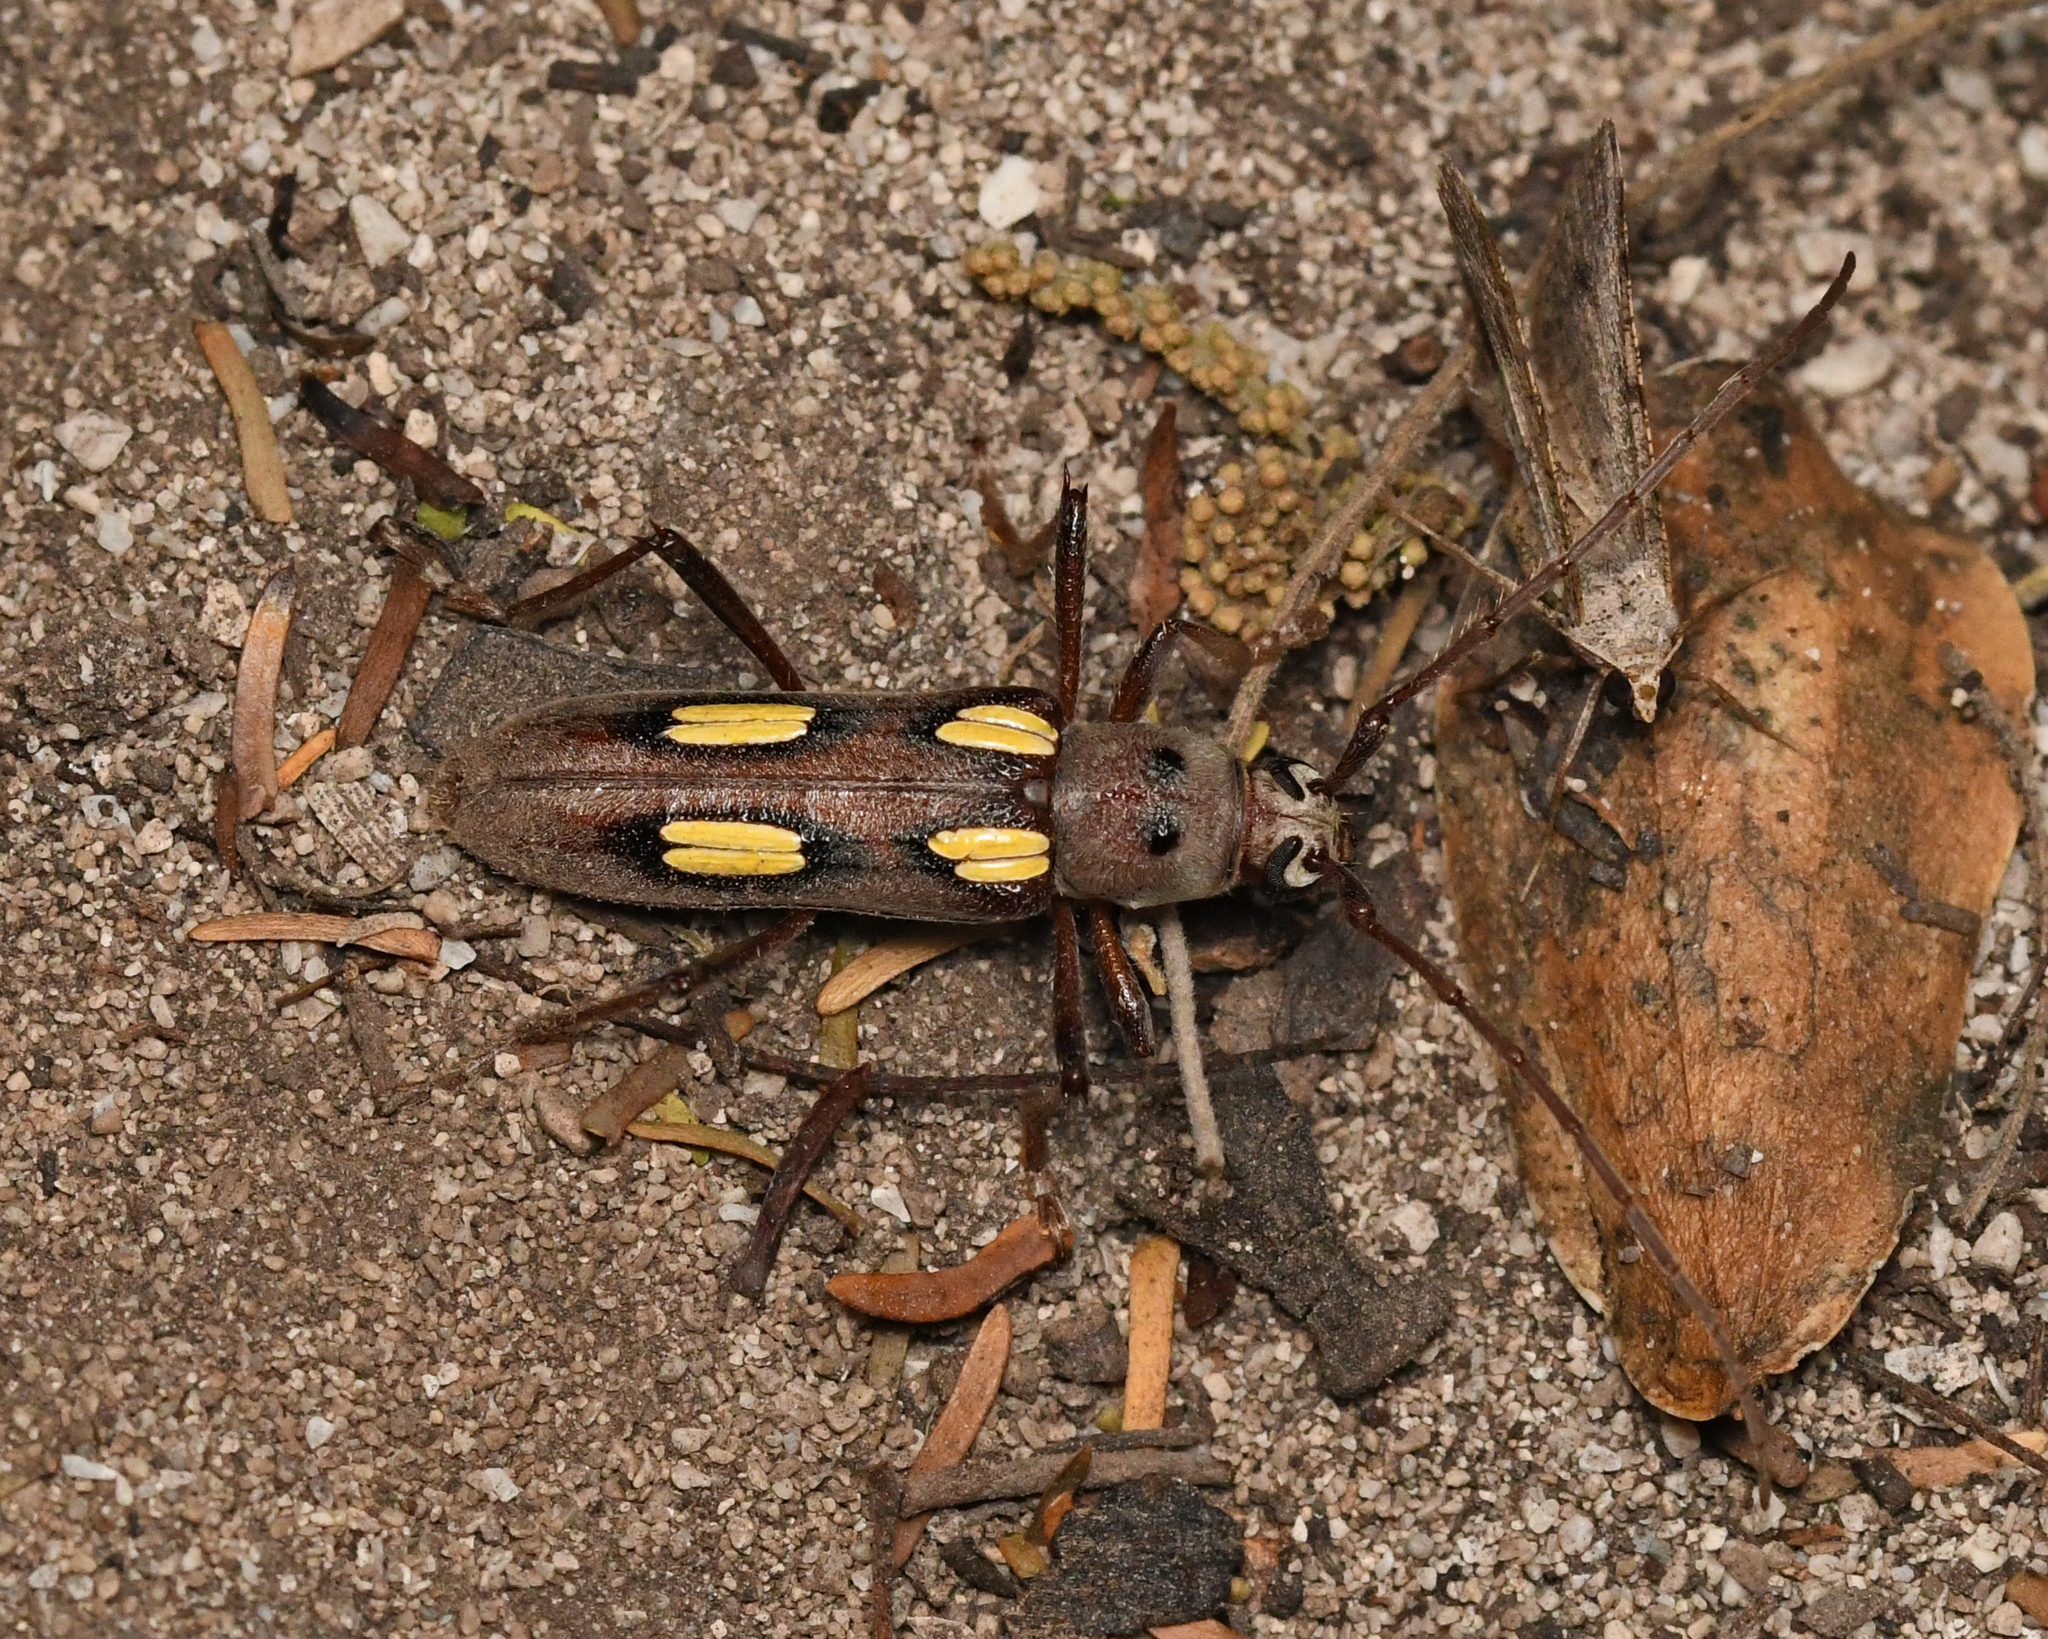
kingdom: Animalia
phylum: Arthropoda
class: Insecta
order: Coleoptera
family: Cerambycidae
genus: Eburia
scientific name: Eburia
